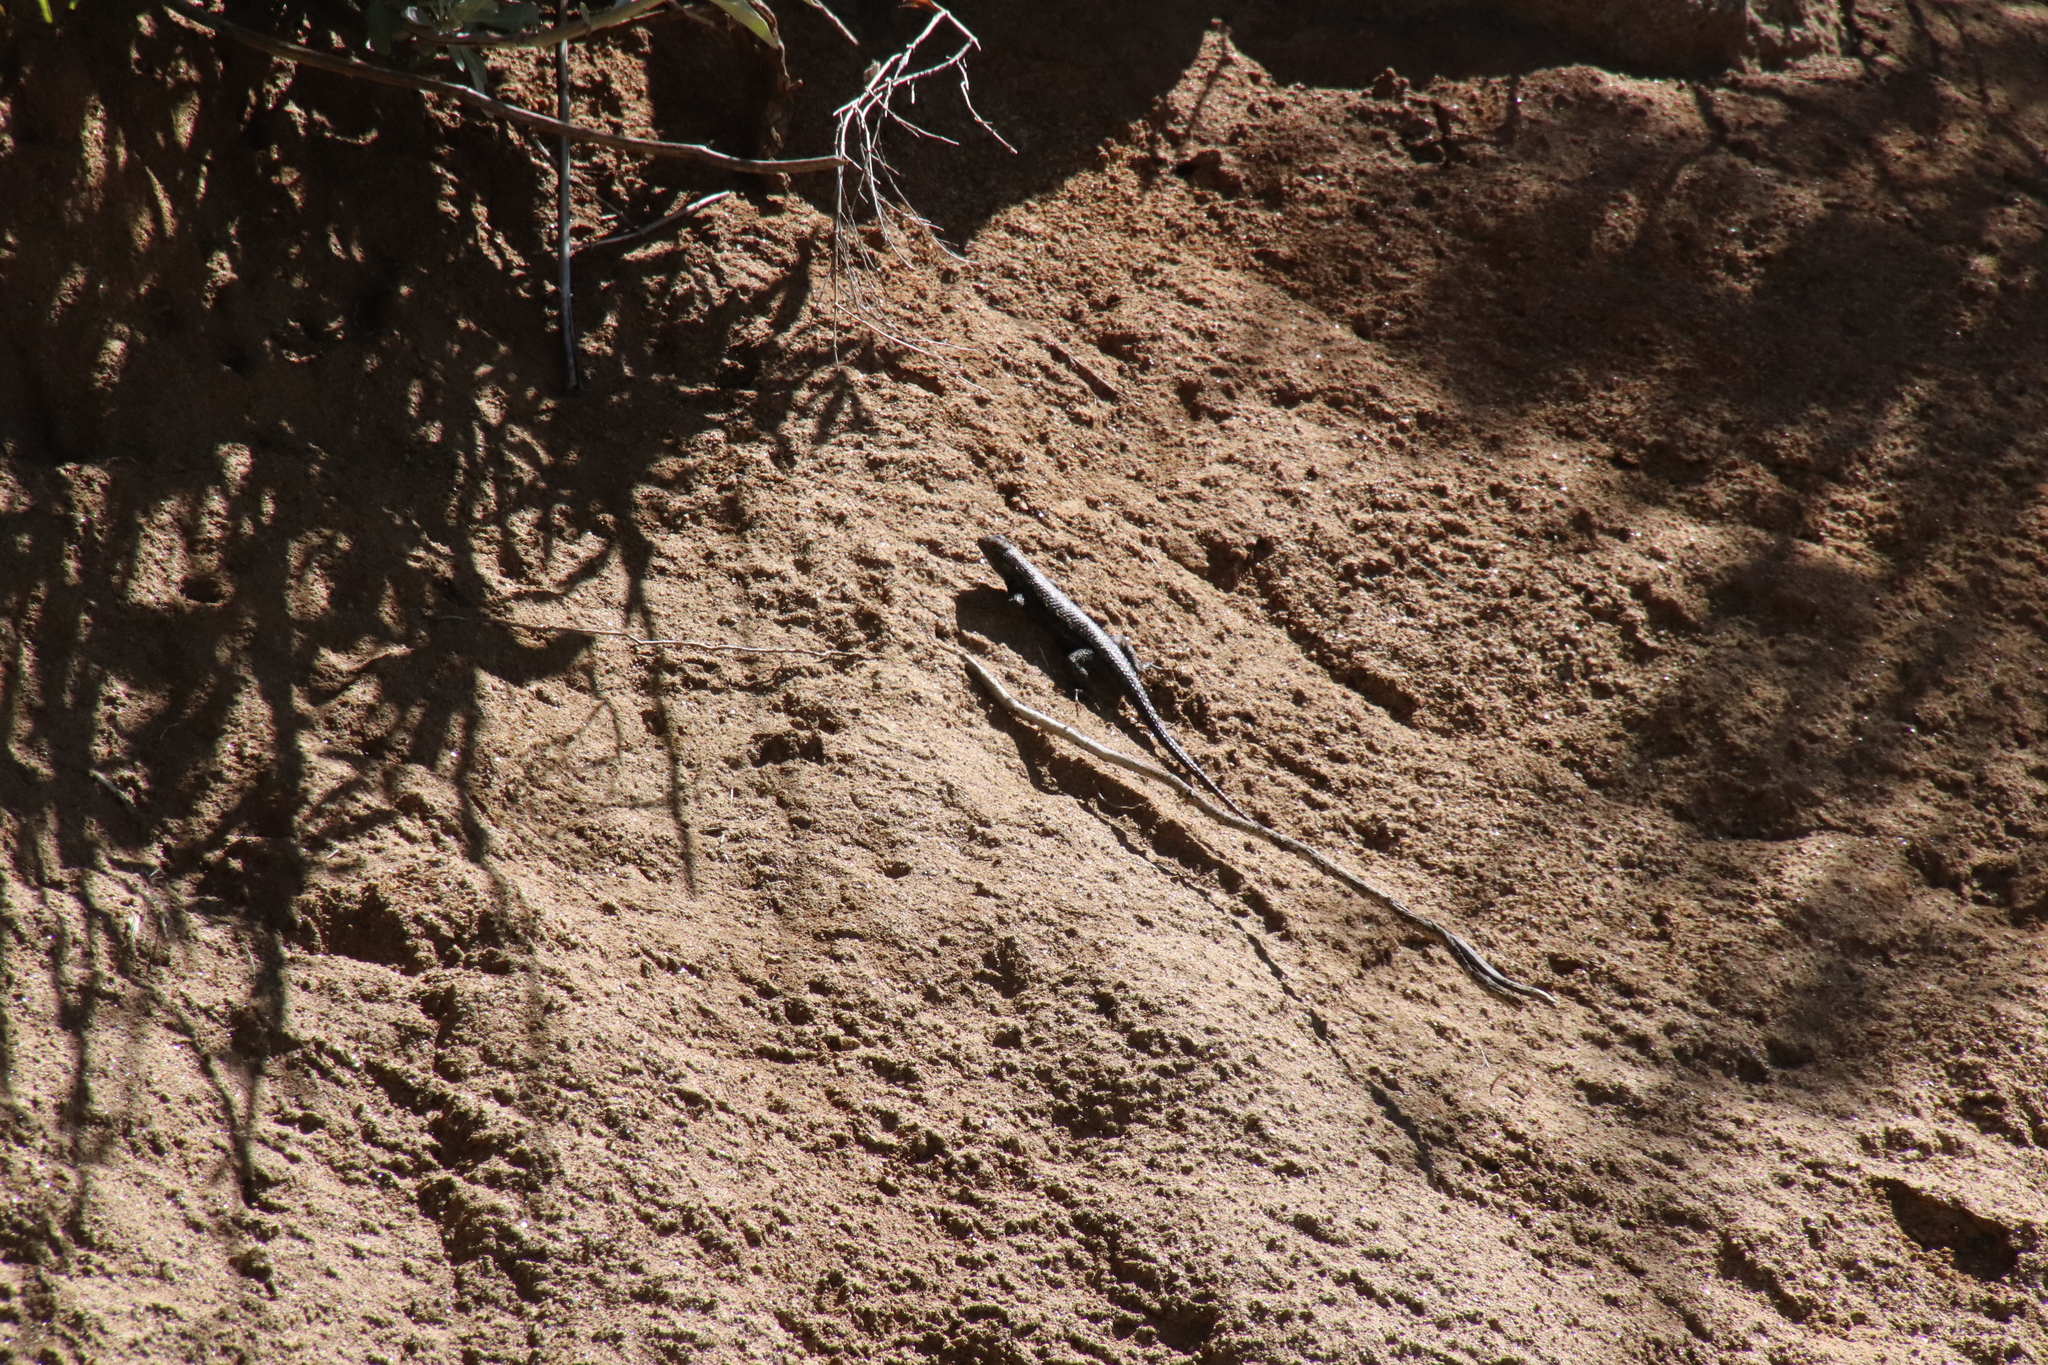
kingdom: Animalia
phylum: Chordata
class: Squamata
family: Phrynosomatidae
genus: Sceloporus
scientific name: Sceloporus occidentalis
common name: Western fence lizard
